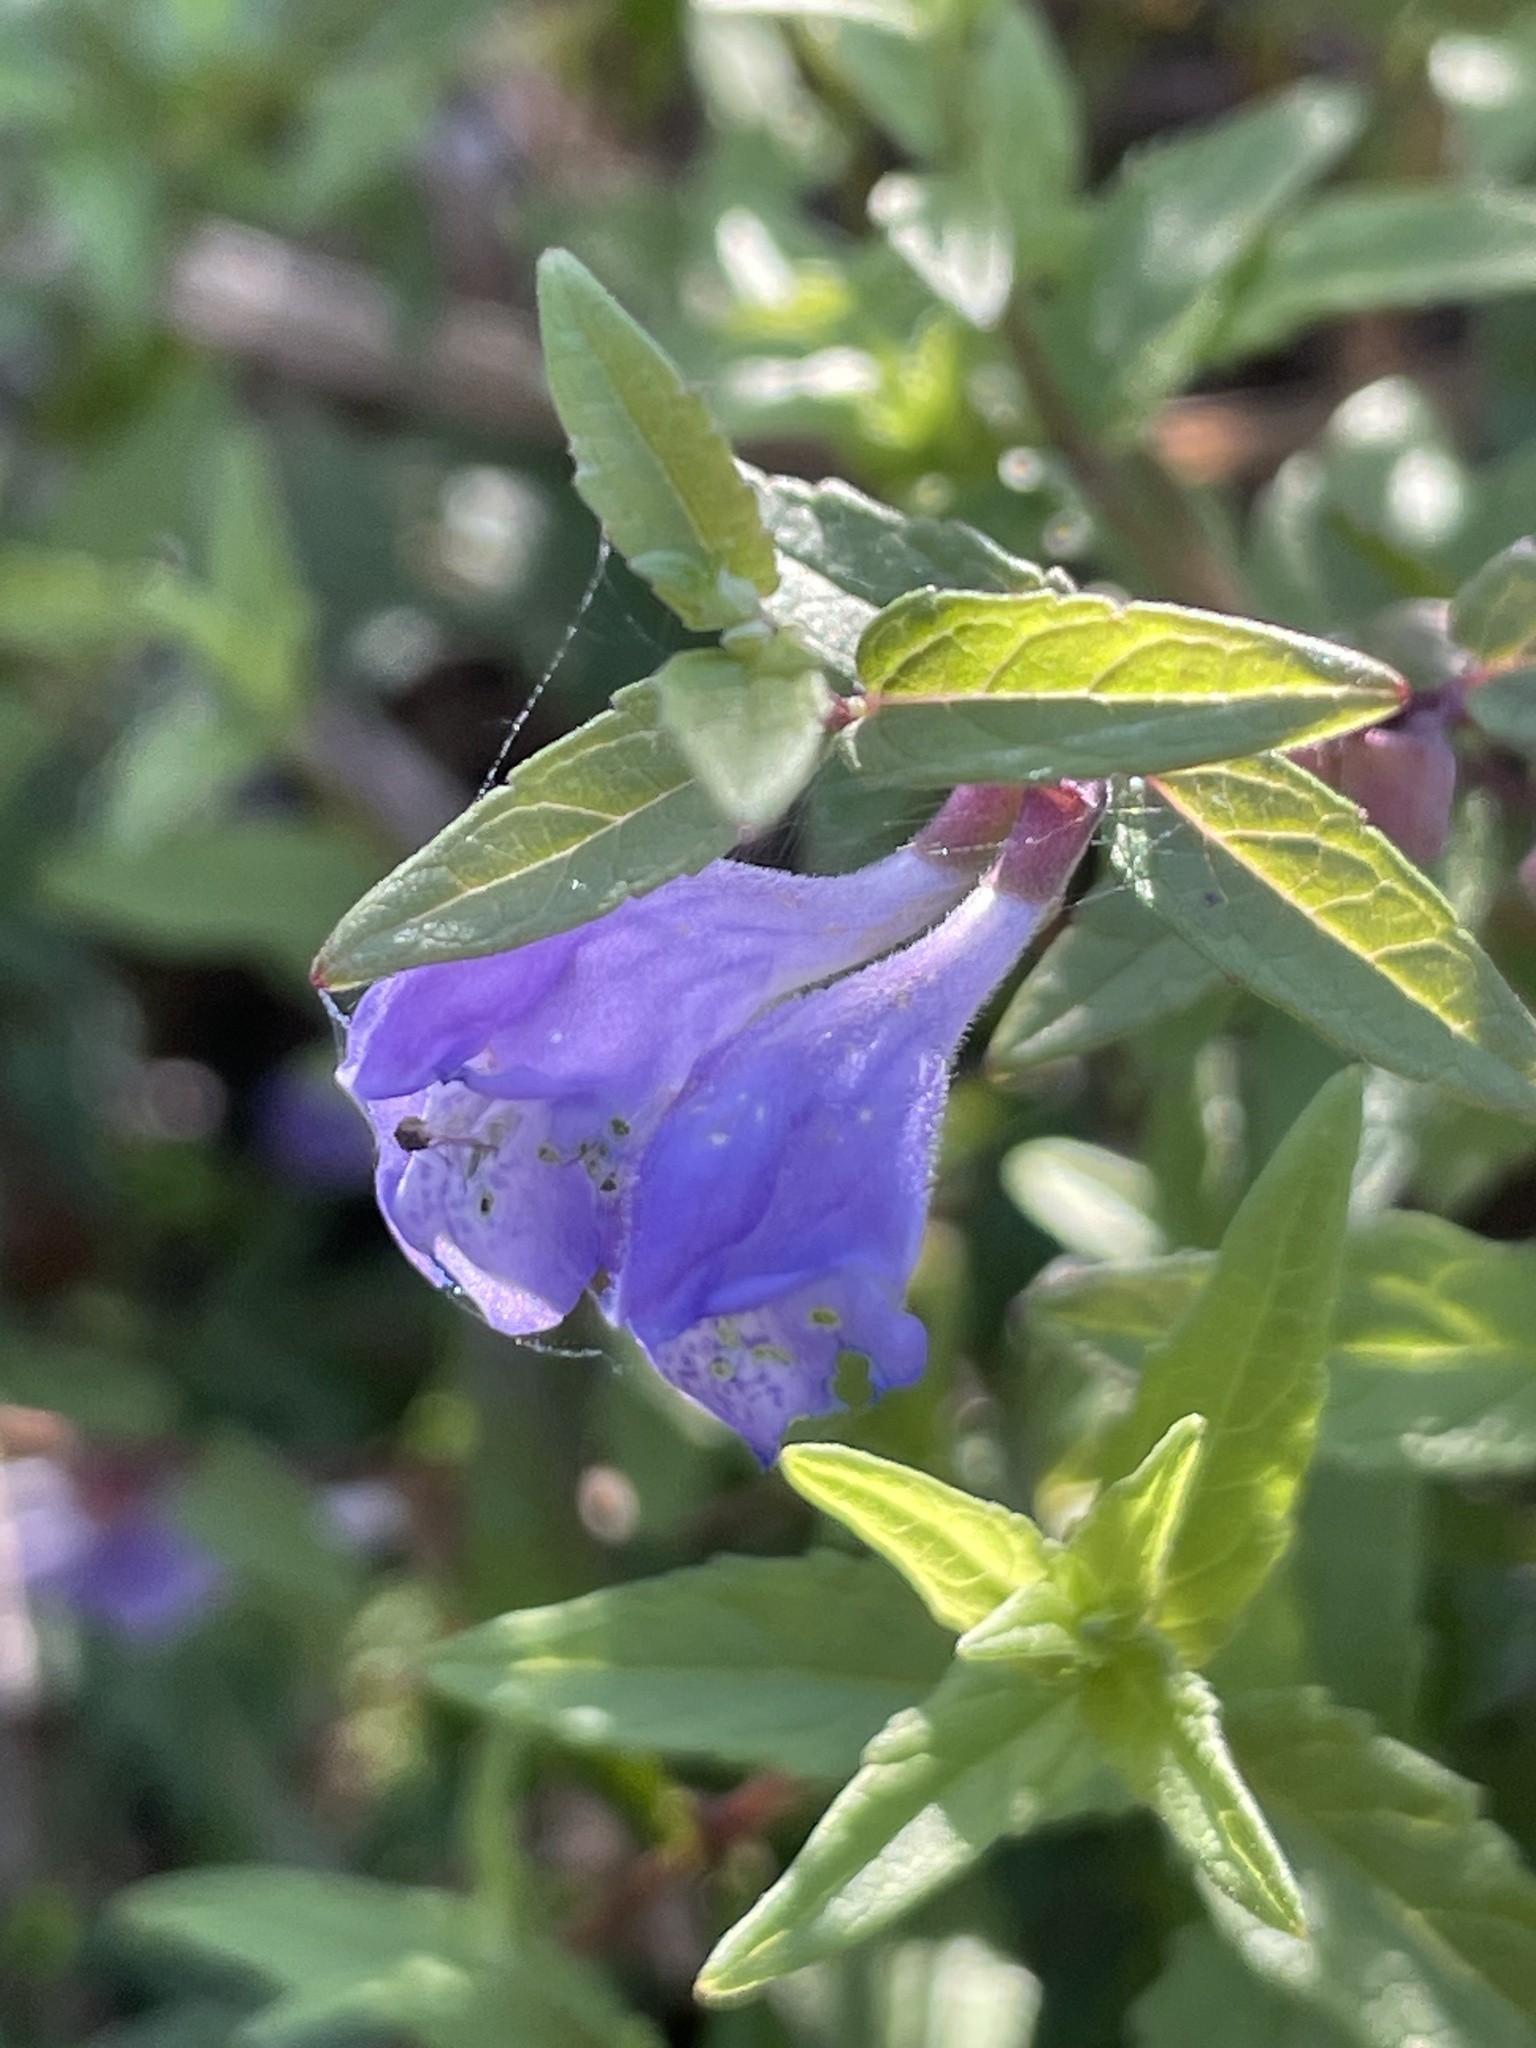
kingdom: Plantae
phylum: Tracheophyta
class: Magnoliopsida
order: Lamiales
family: Lamiaceae
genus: Scutellaria
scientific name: Scutellaria galericulata
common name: Skullcap
